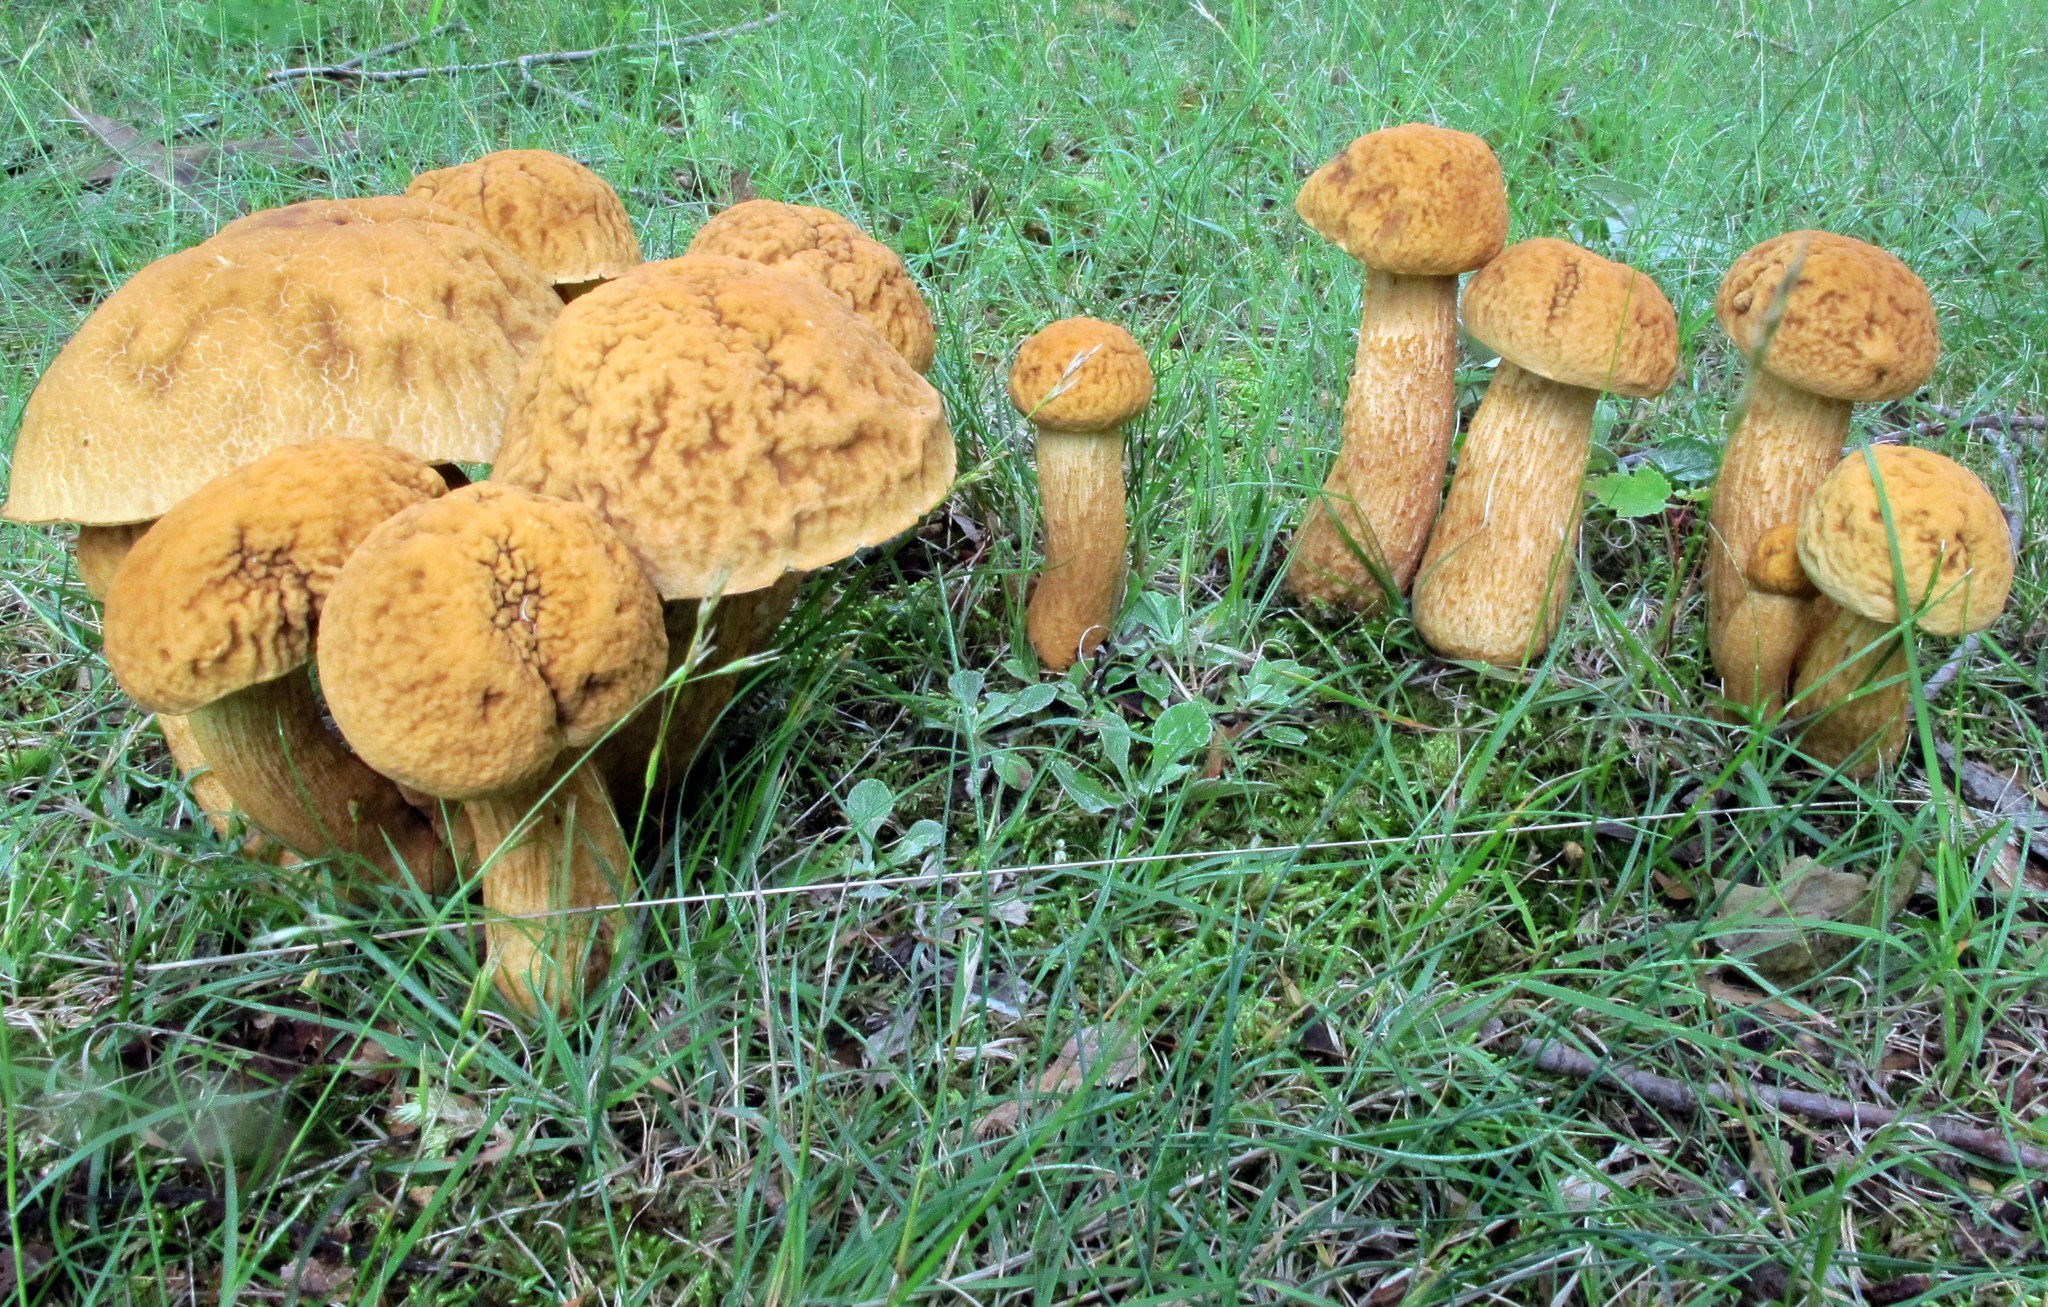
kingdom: Fungi
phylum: Basidiomycota
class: Agaricomycetes
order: Boletales
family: Boletaceae
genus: Leccinellum
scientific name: Leccinellum rugosiceps
